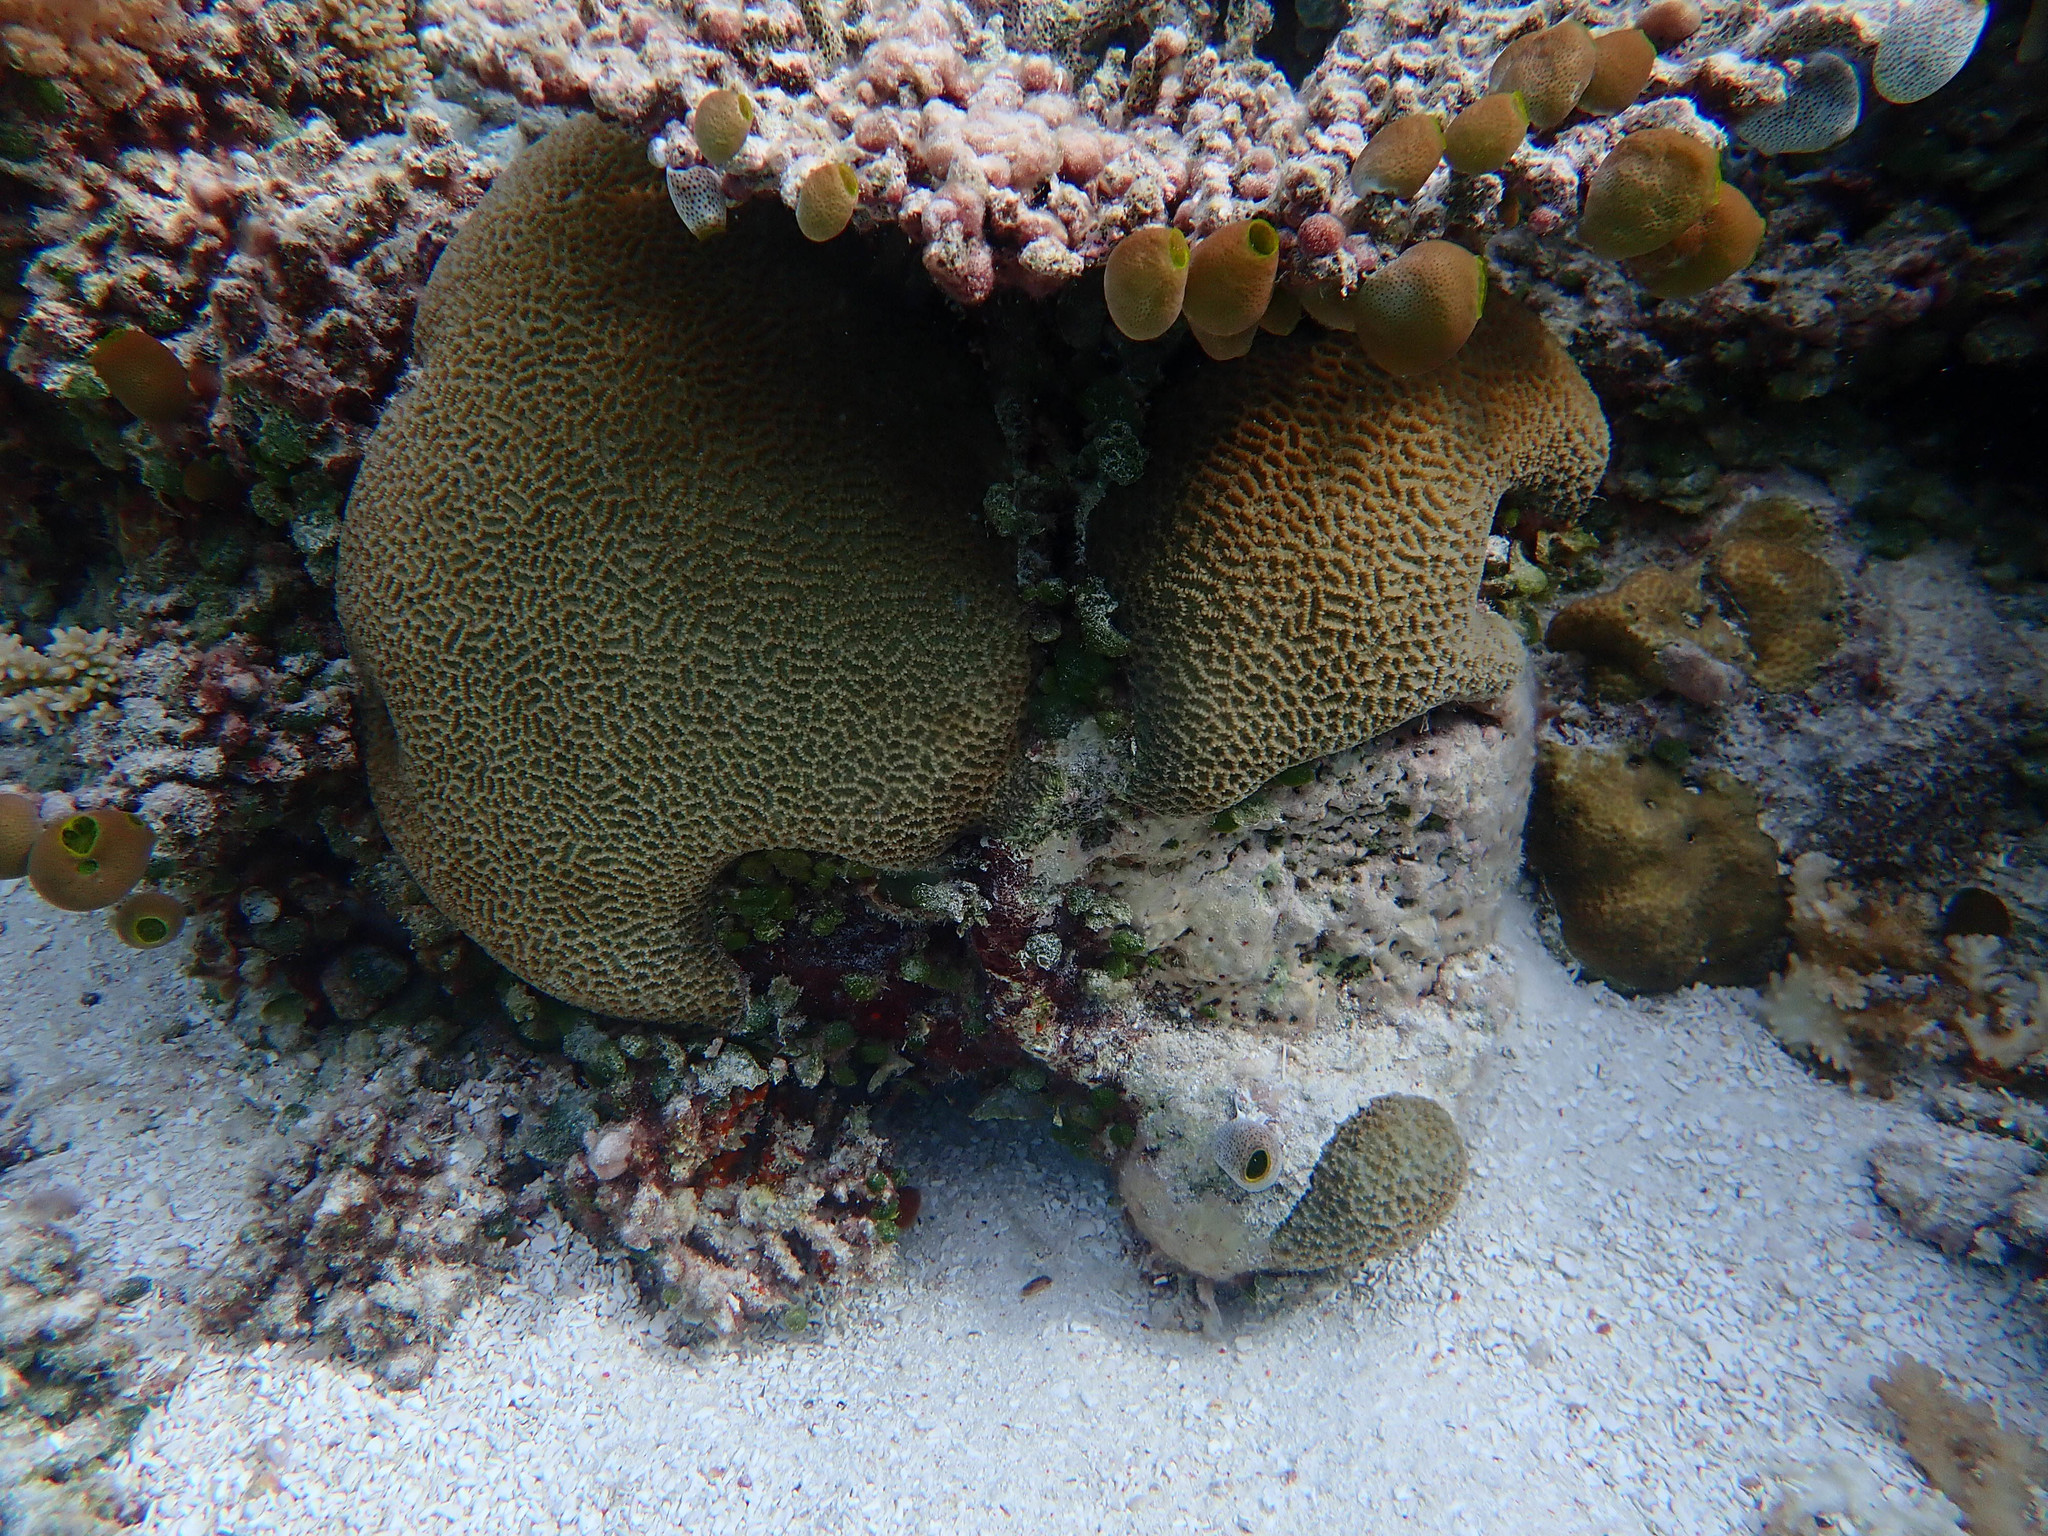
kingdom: Animalia
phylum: Cnidaria
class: Anthozoa
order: Scleractinia
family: Merulinidae
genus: Platygyra
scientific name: Platygyra ryukyuensis
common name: Lesser valley coral
